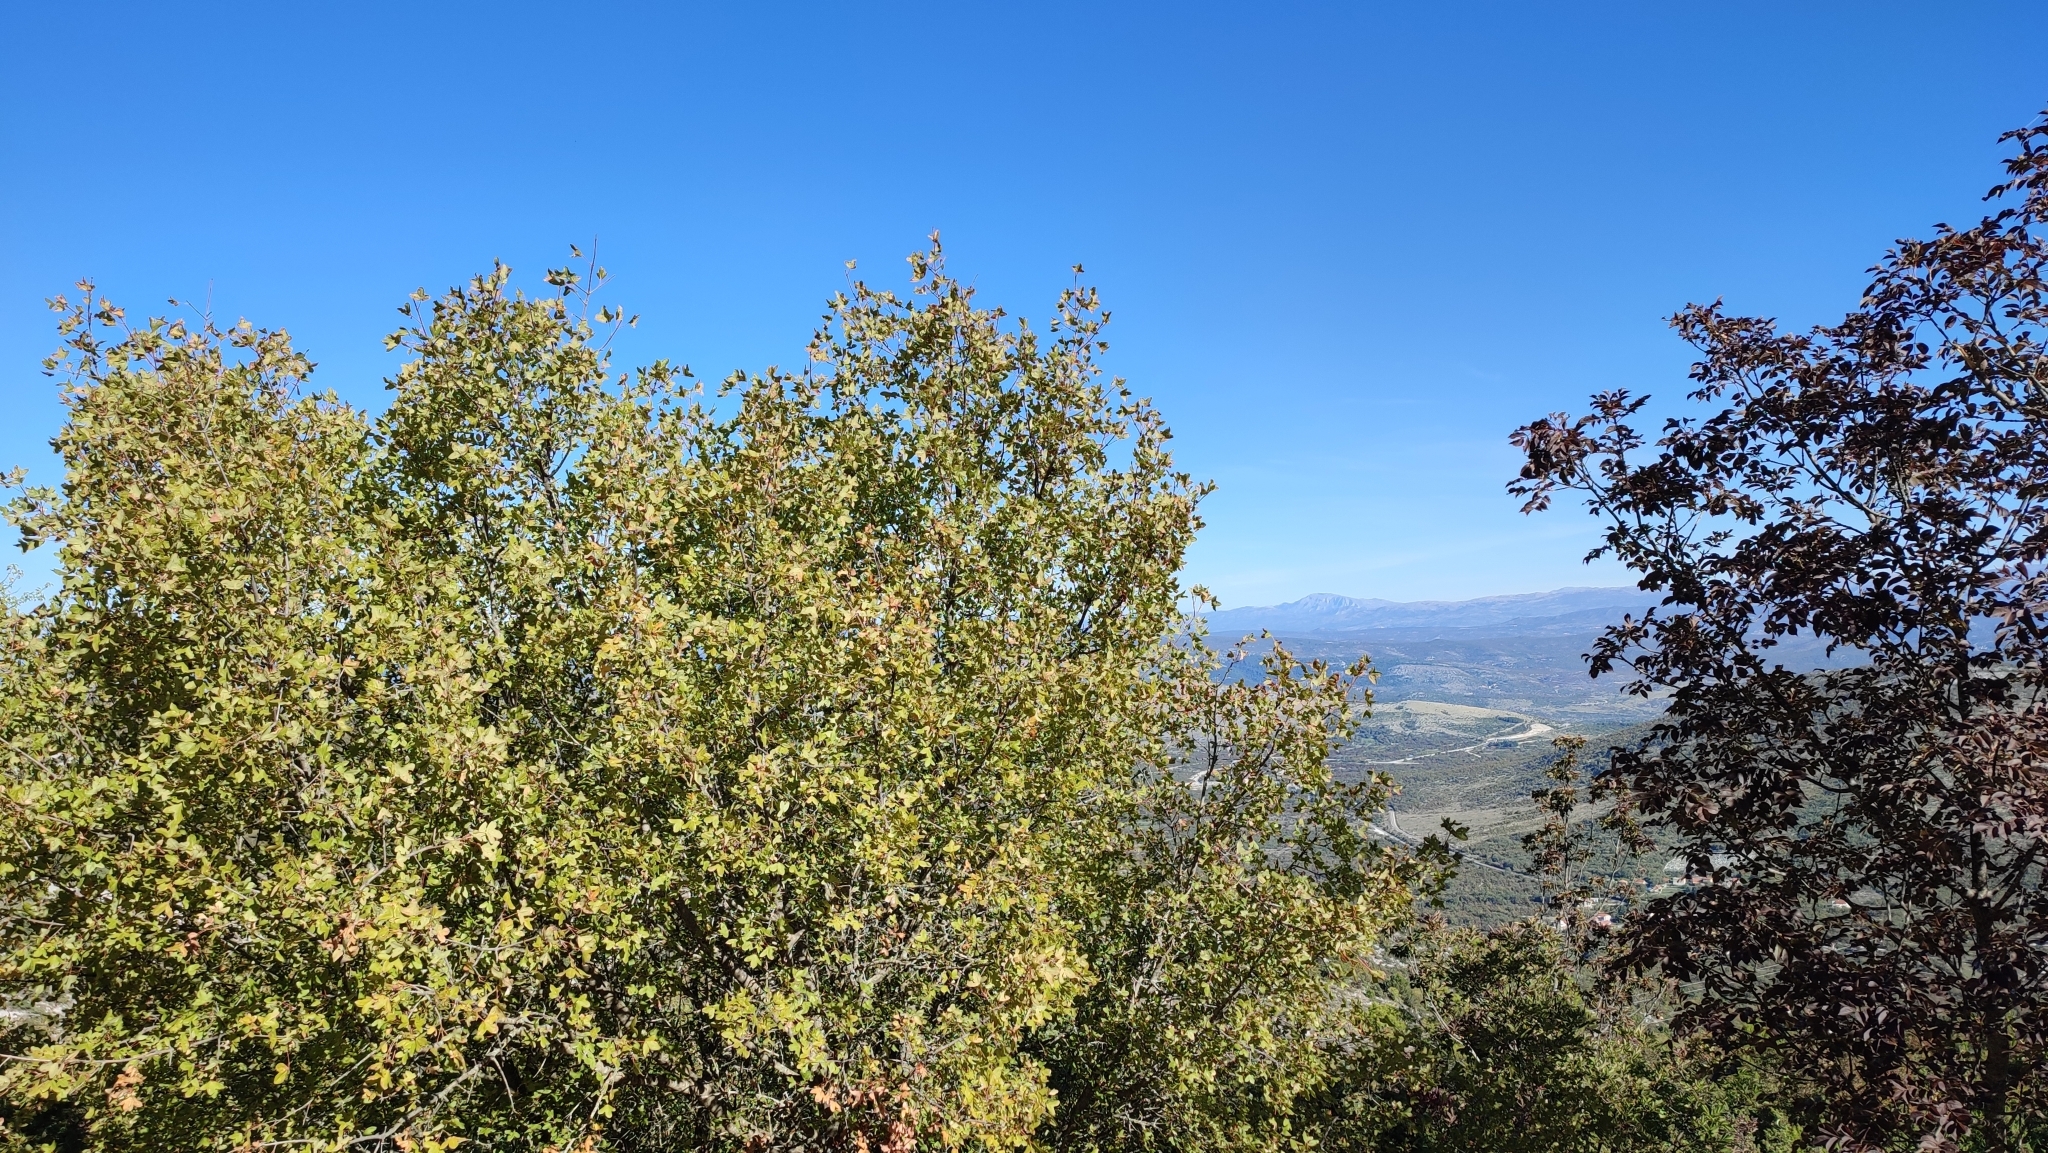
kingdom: Plantae
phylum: Tracheophyta
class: Magnoliopsida
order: Sapindales
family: Sapindaceae
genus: Acer
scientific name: Acer monspessulanum
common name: Montpellier maple
